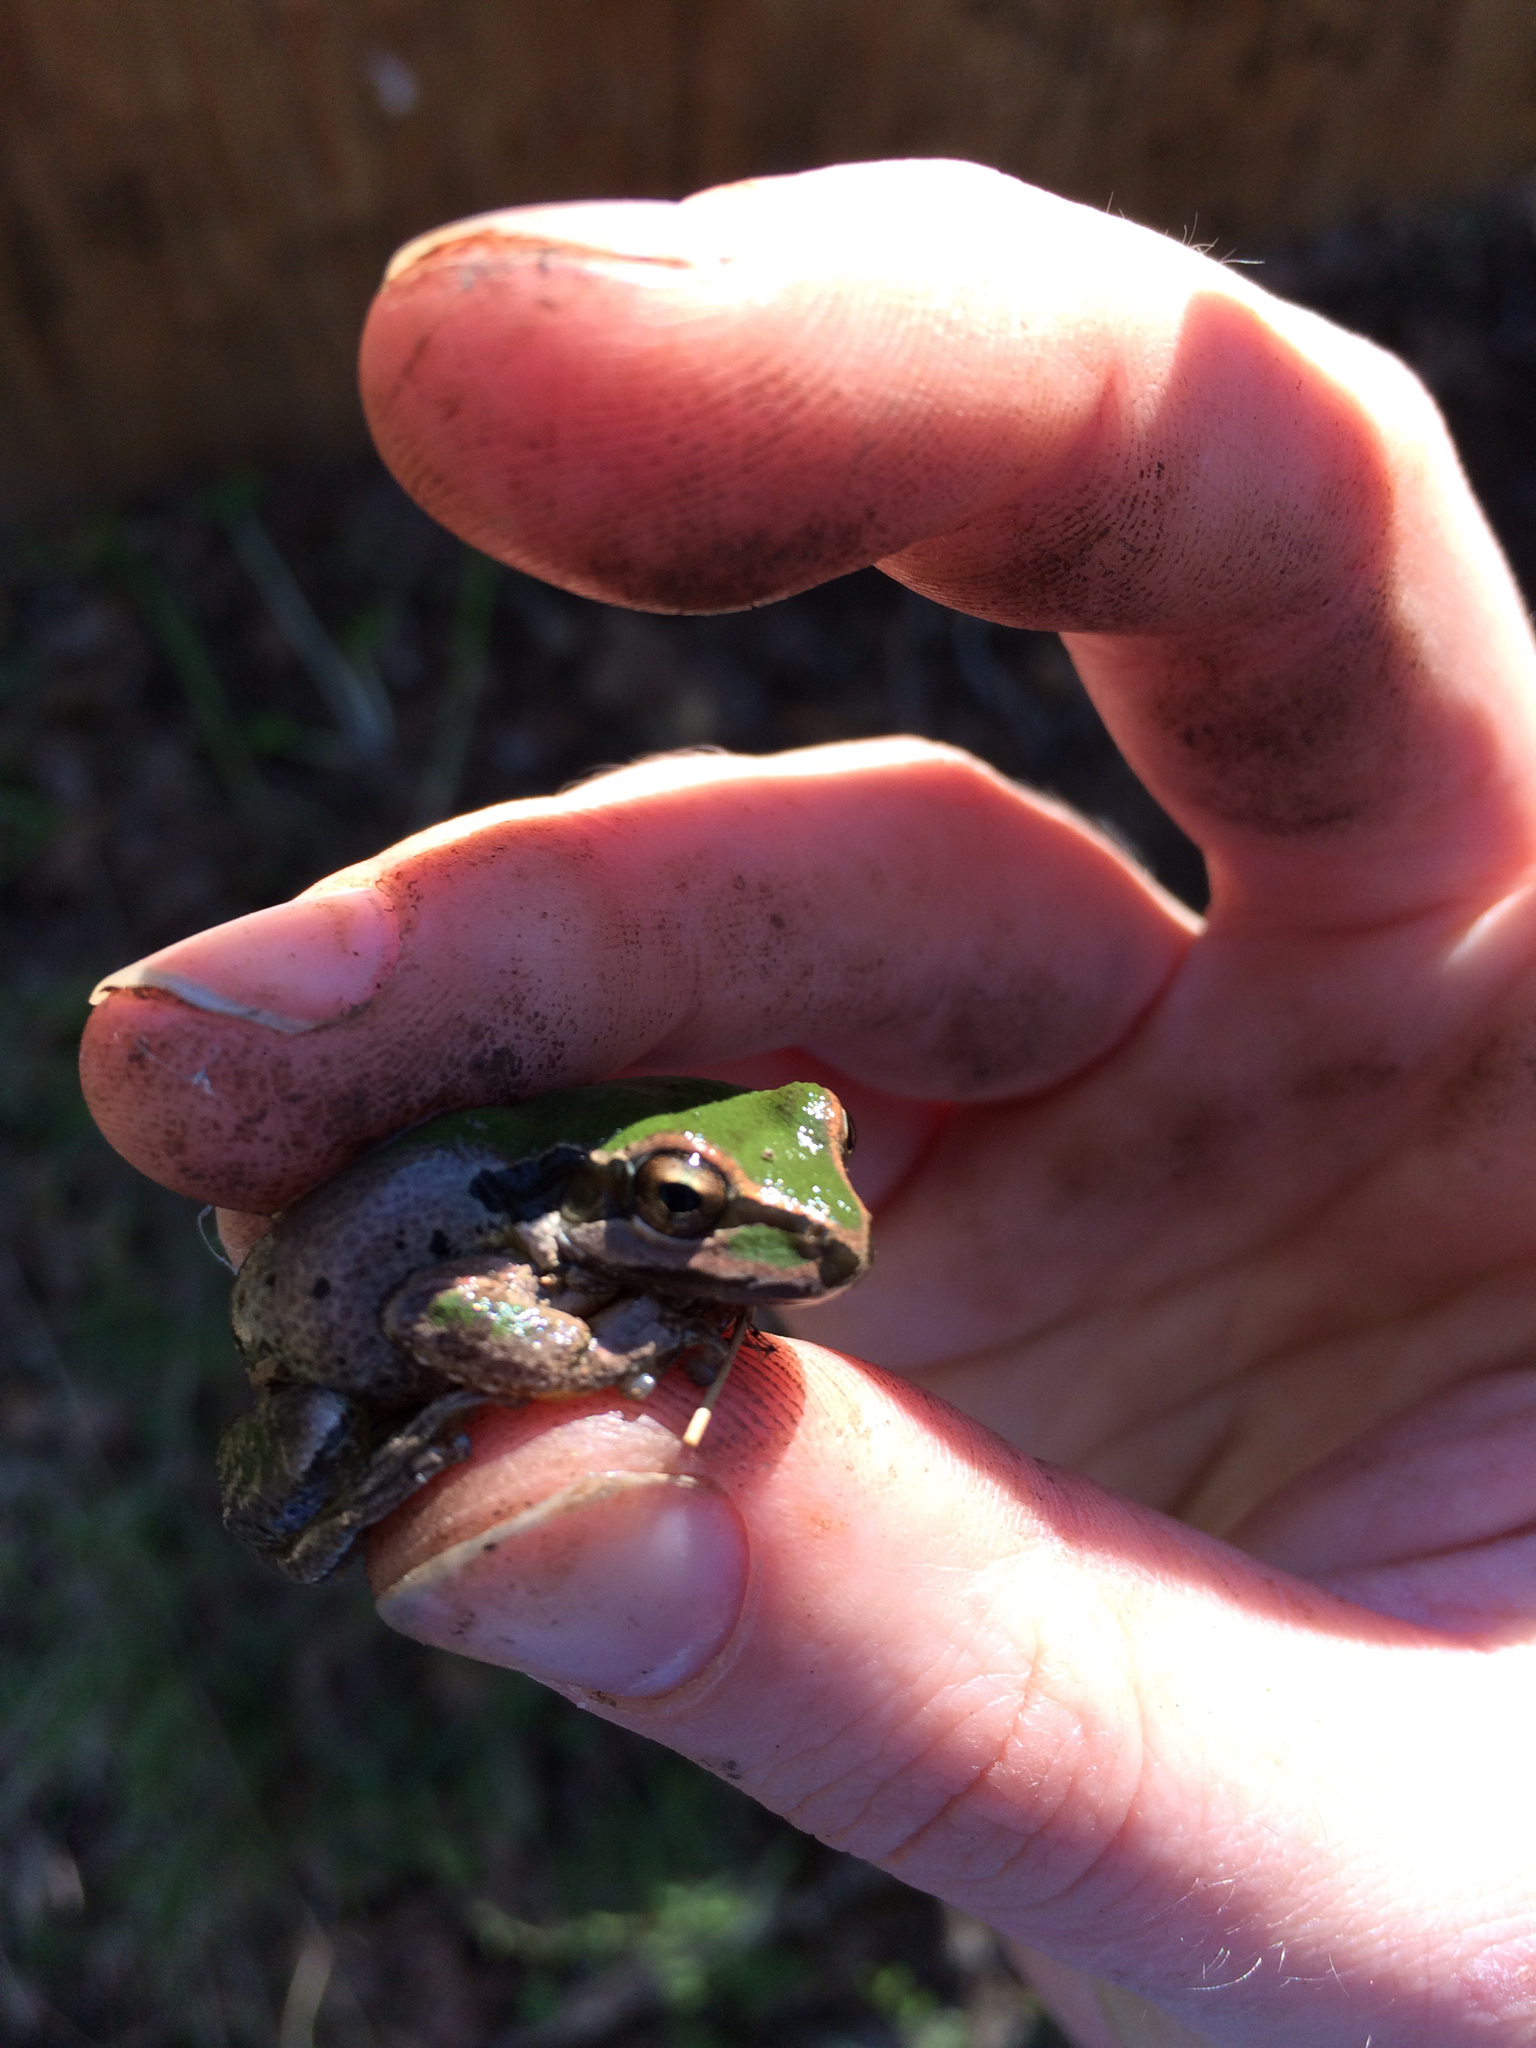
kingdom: Animalia
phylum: Chordata
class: Amphibia
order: Anura
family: Hylidae
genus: Pseudacris
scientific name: Pseudacris regilla
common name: Pacific chorus frog
